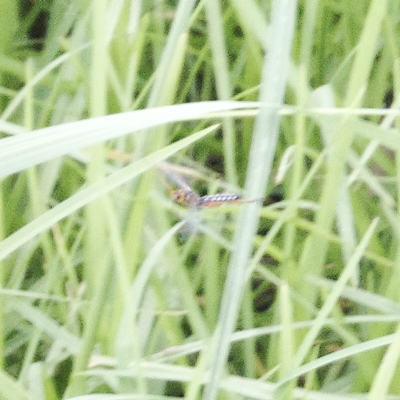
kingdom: Animalia
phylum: Arthropoda
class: Insecta
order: Hymenoptera
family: Ichneumonidae
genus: Echthromorpha
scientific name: Echthromorpha intricatoria
